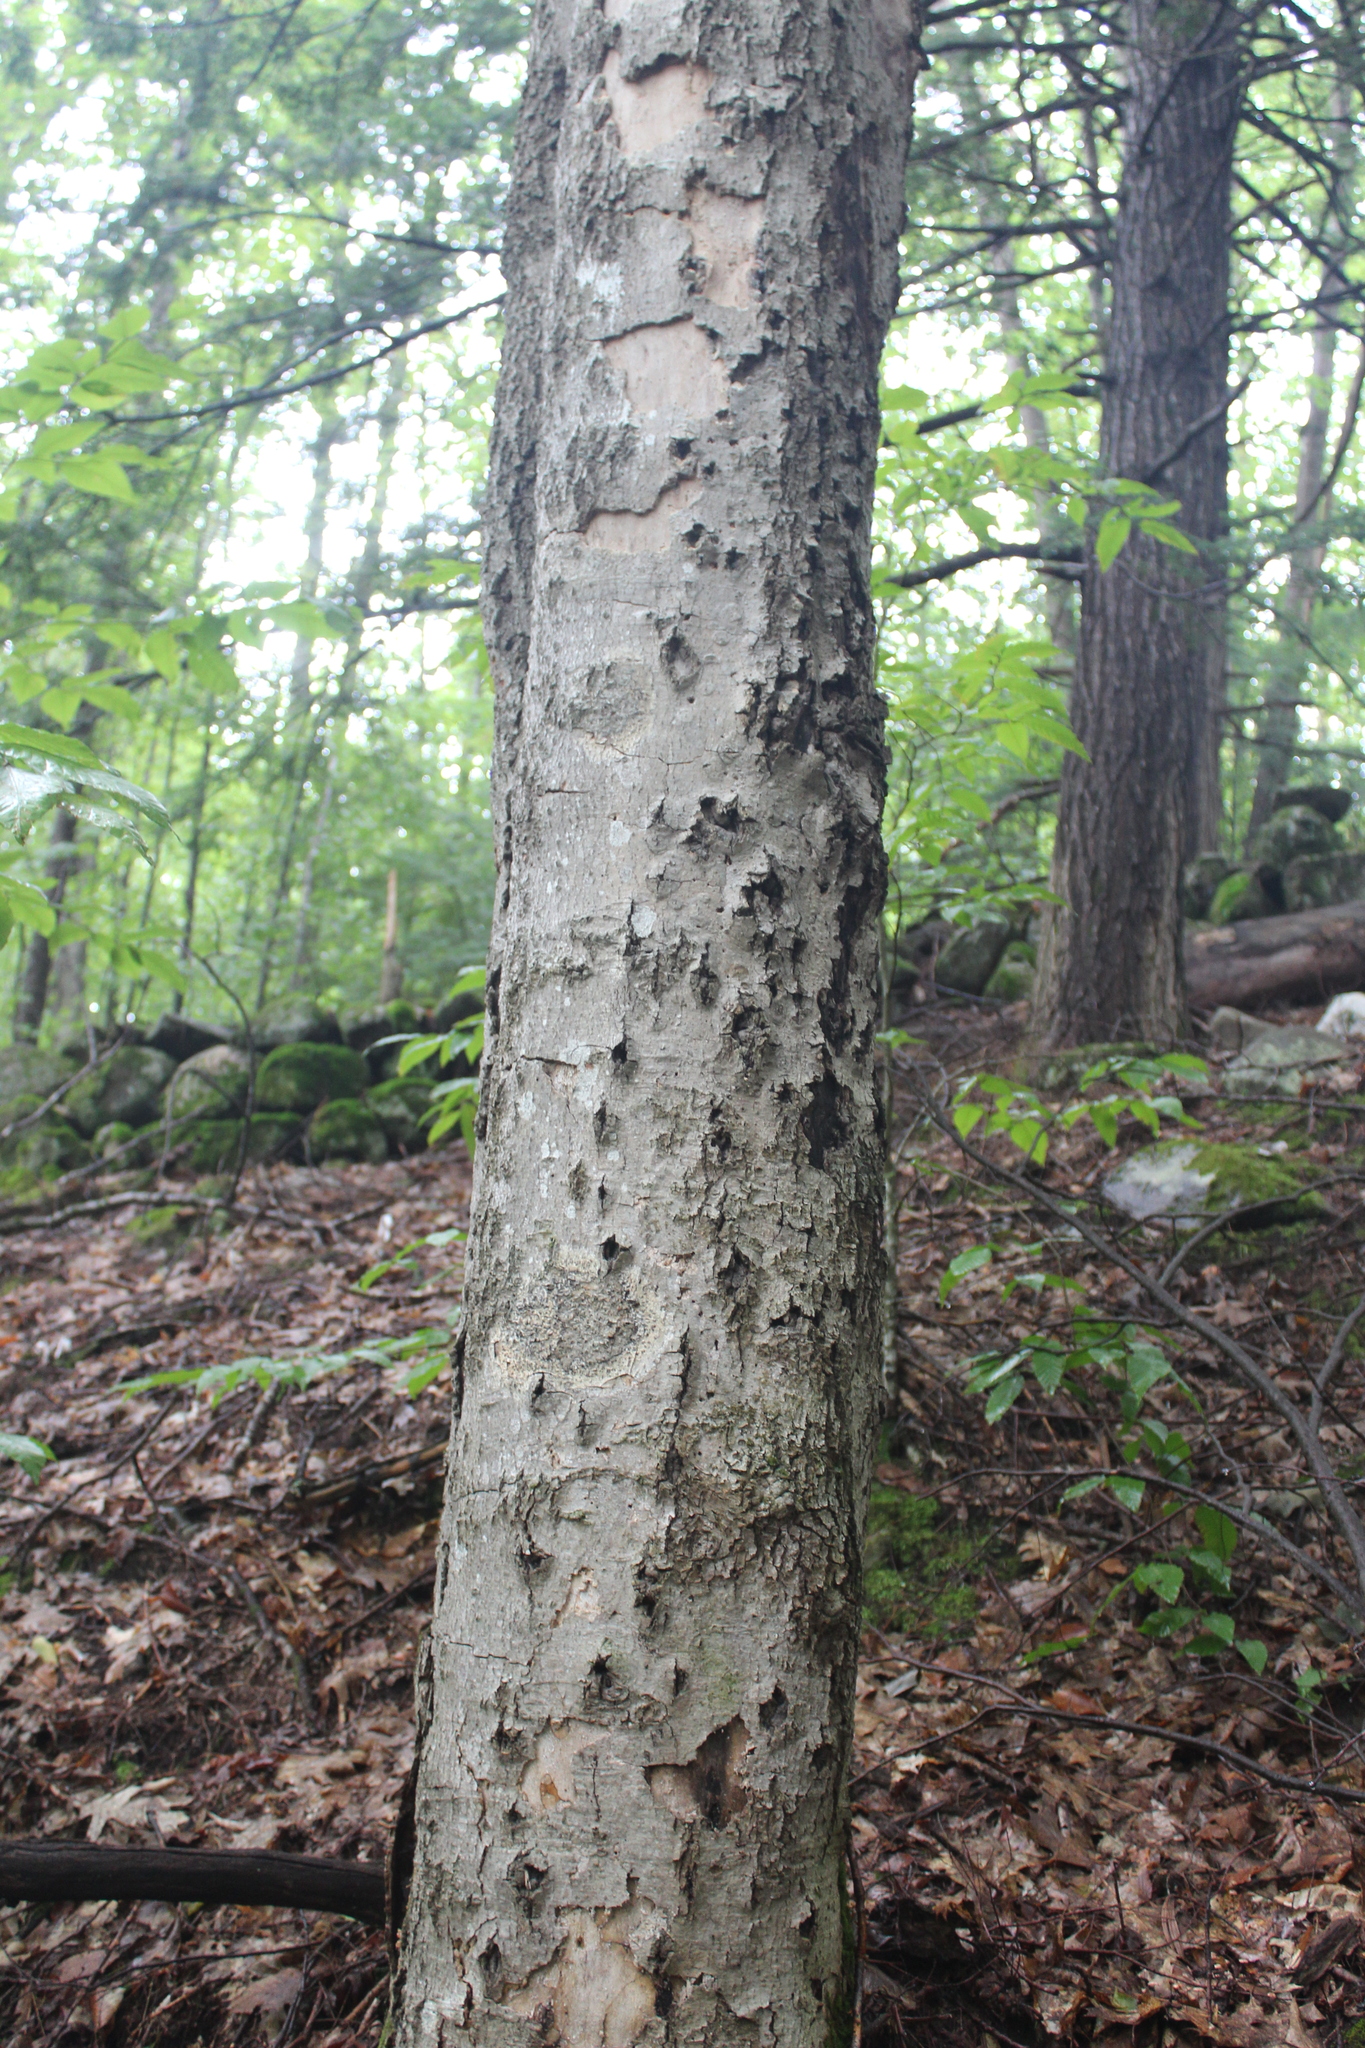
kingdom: Plantae
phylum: Tracheophyta
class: Magnoliopsida
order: Fagales
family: Fagaceae
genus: Fagus
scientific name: Fagus grandifolia
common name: American beech
